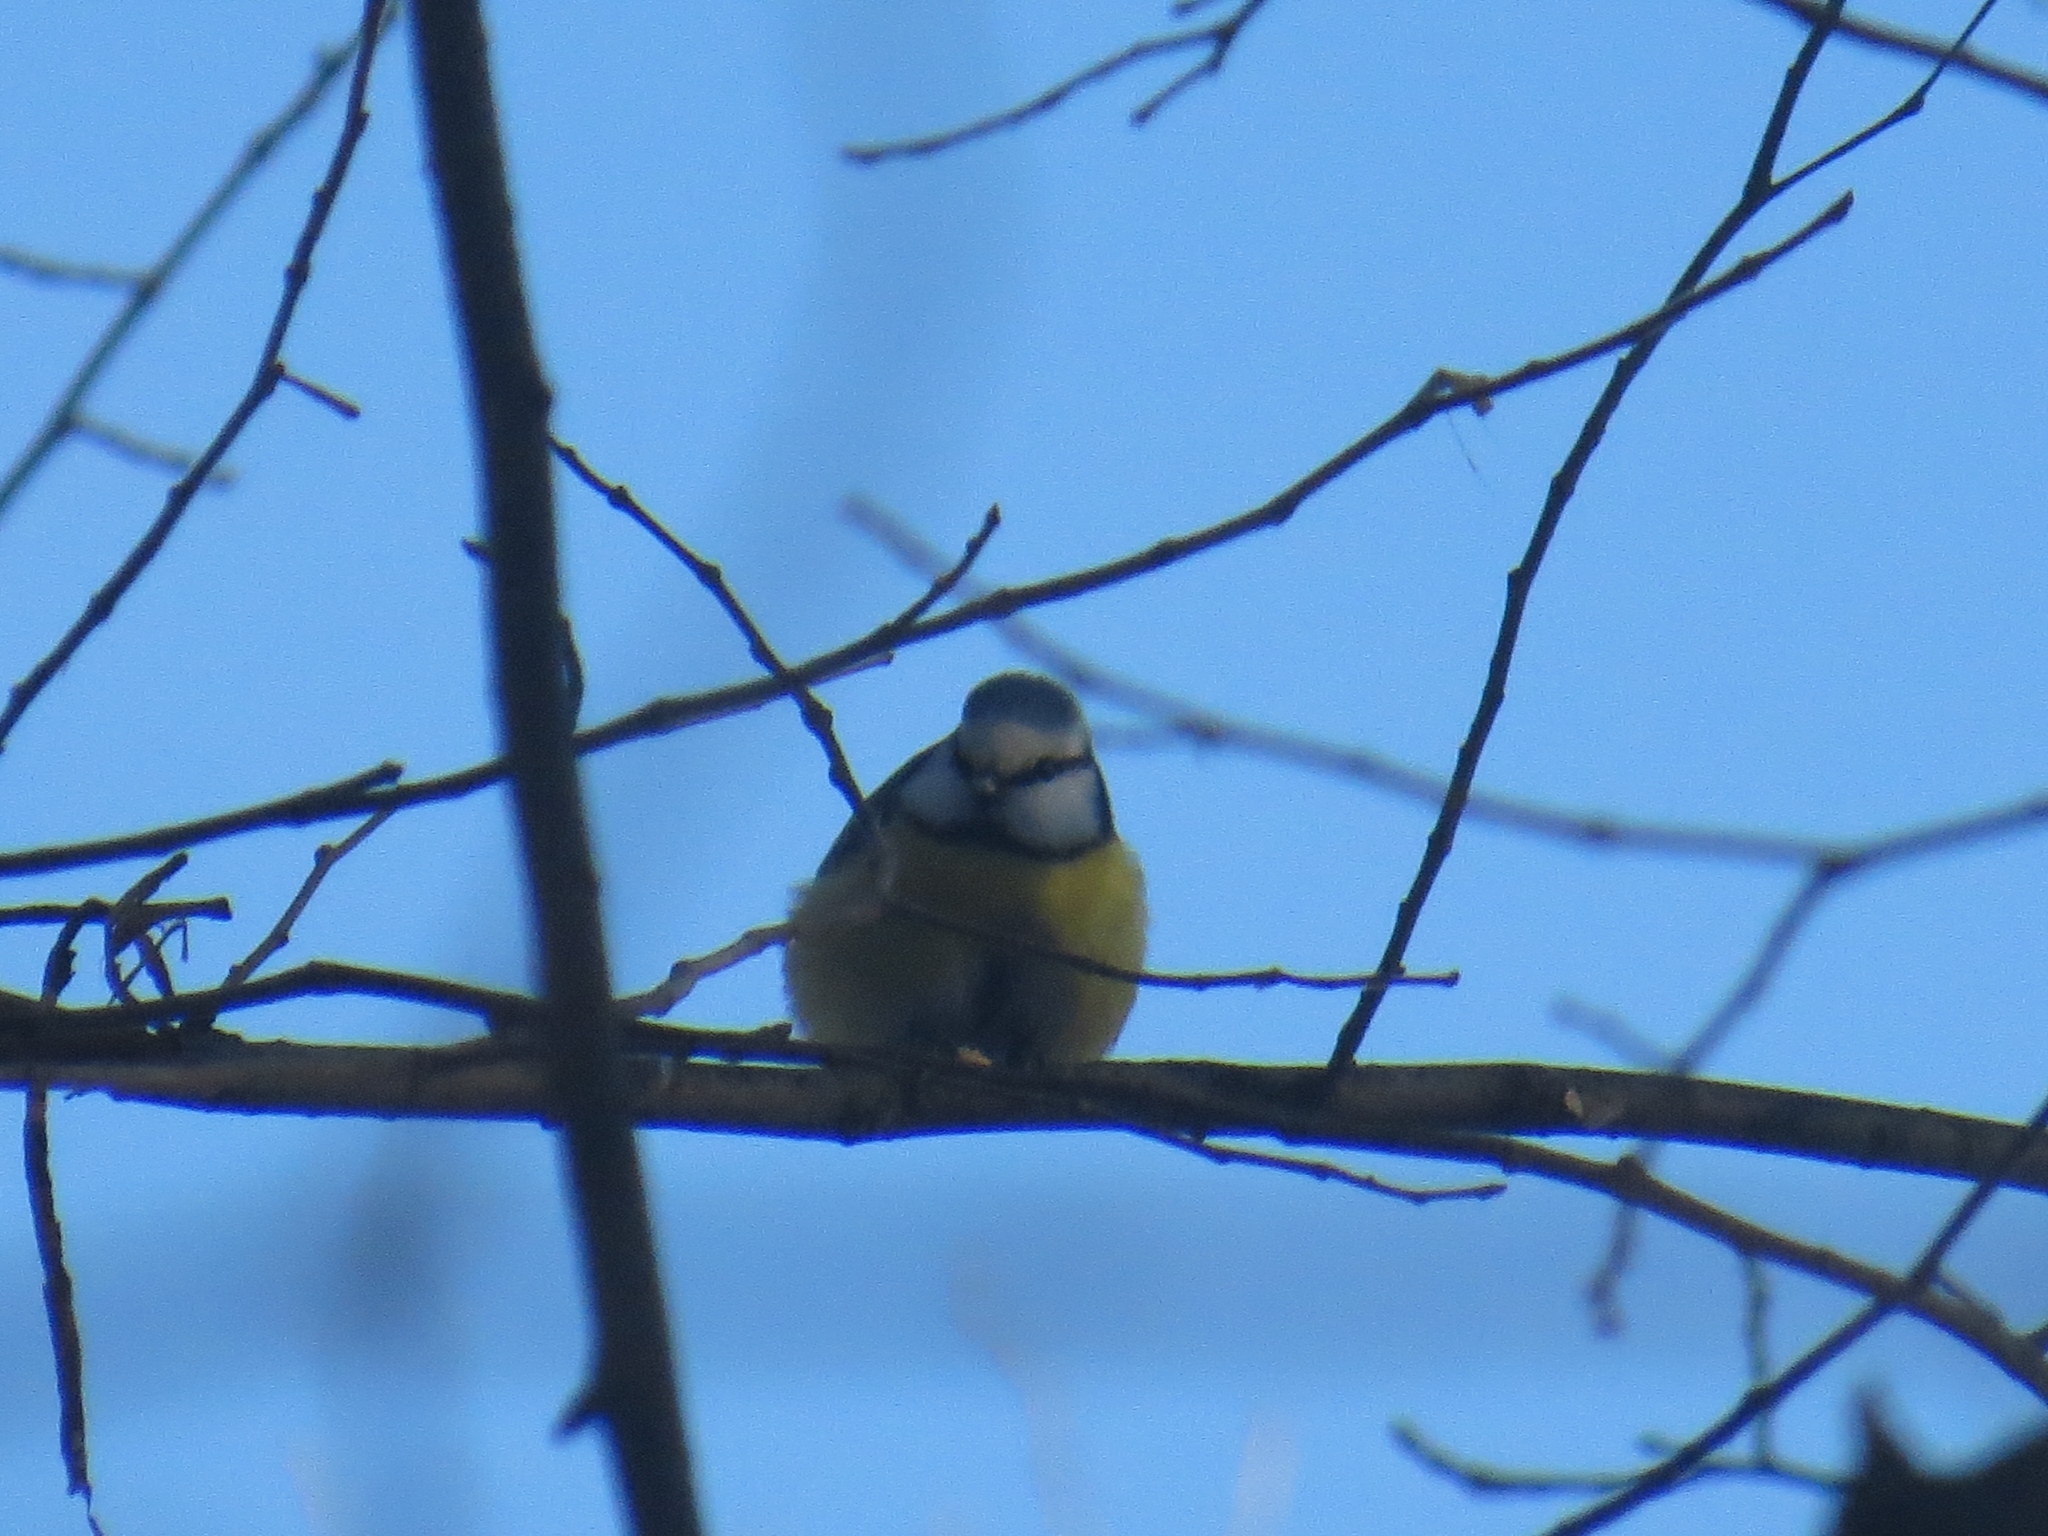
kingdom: Animalia
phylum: Chordata
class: Aves
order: Passeriformes
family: Paridae
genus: Cyanistes
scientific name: Cyanistes caeruleus
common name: Eurasian blue tit
